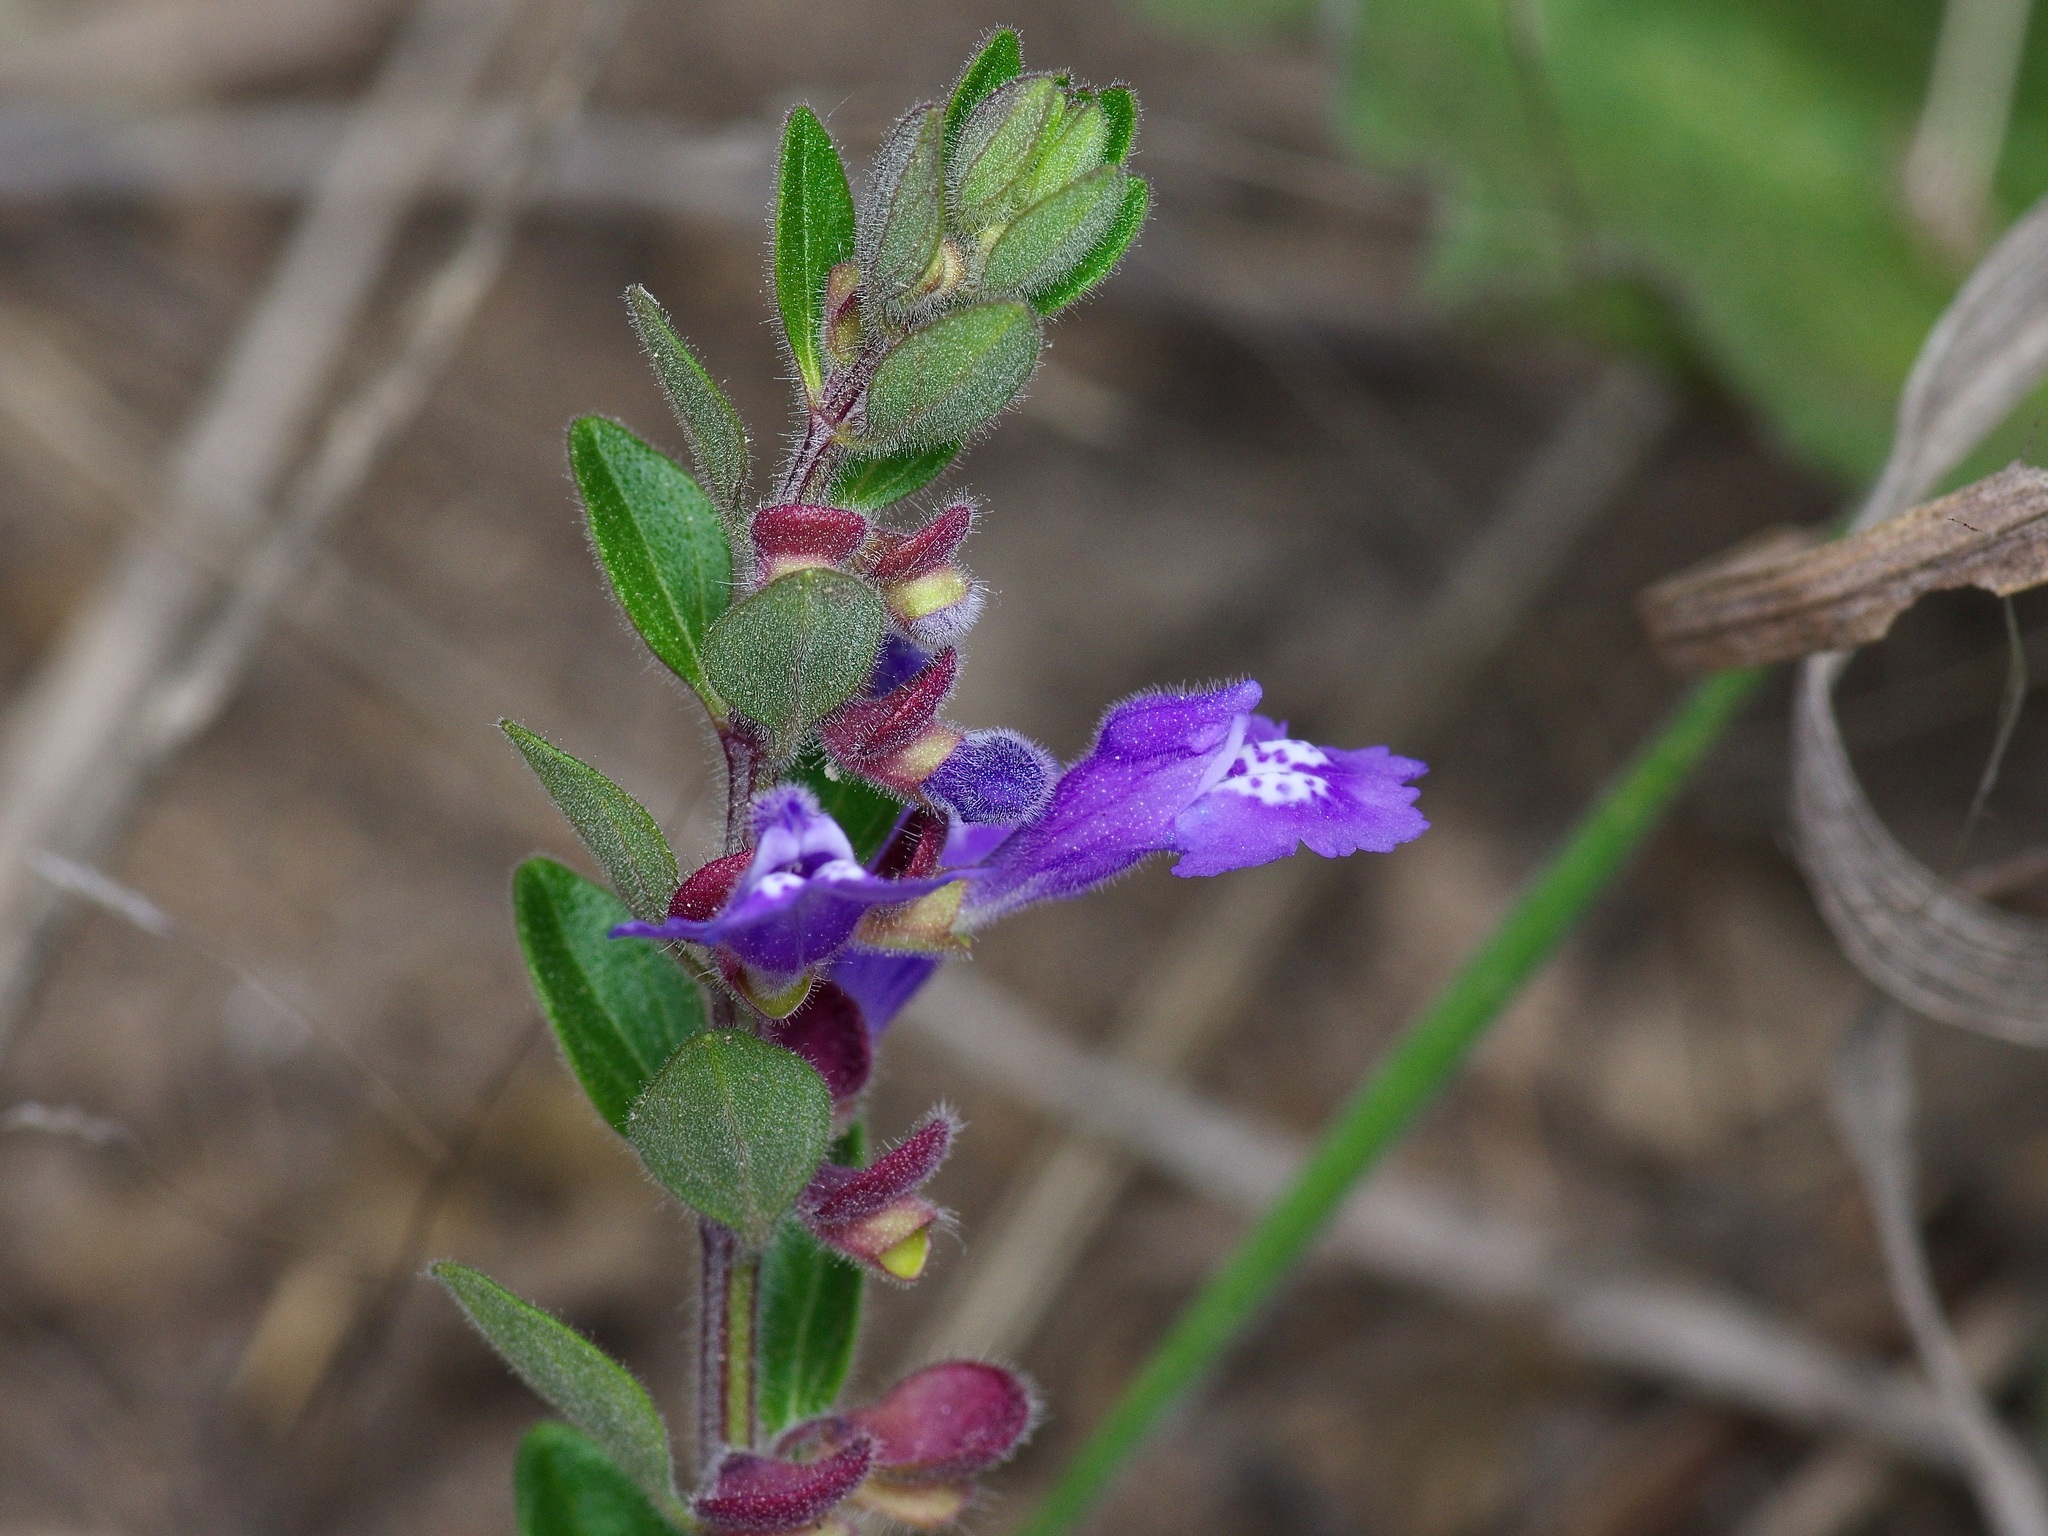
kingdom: Plantae
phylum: Tracheophyta
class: Magnoliopsida
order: Lamiales
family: Lamiaceae
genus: Scutellaria
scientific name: Scutellaria drummondii
